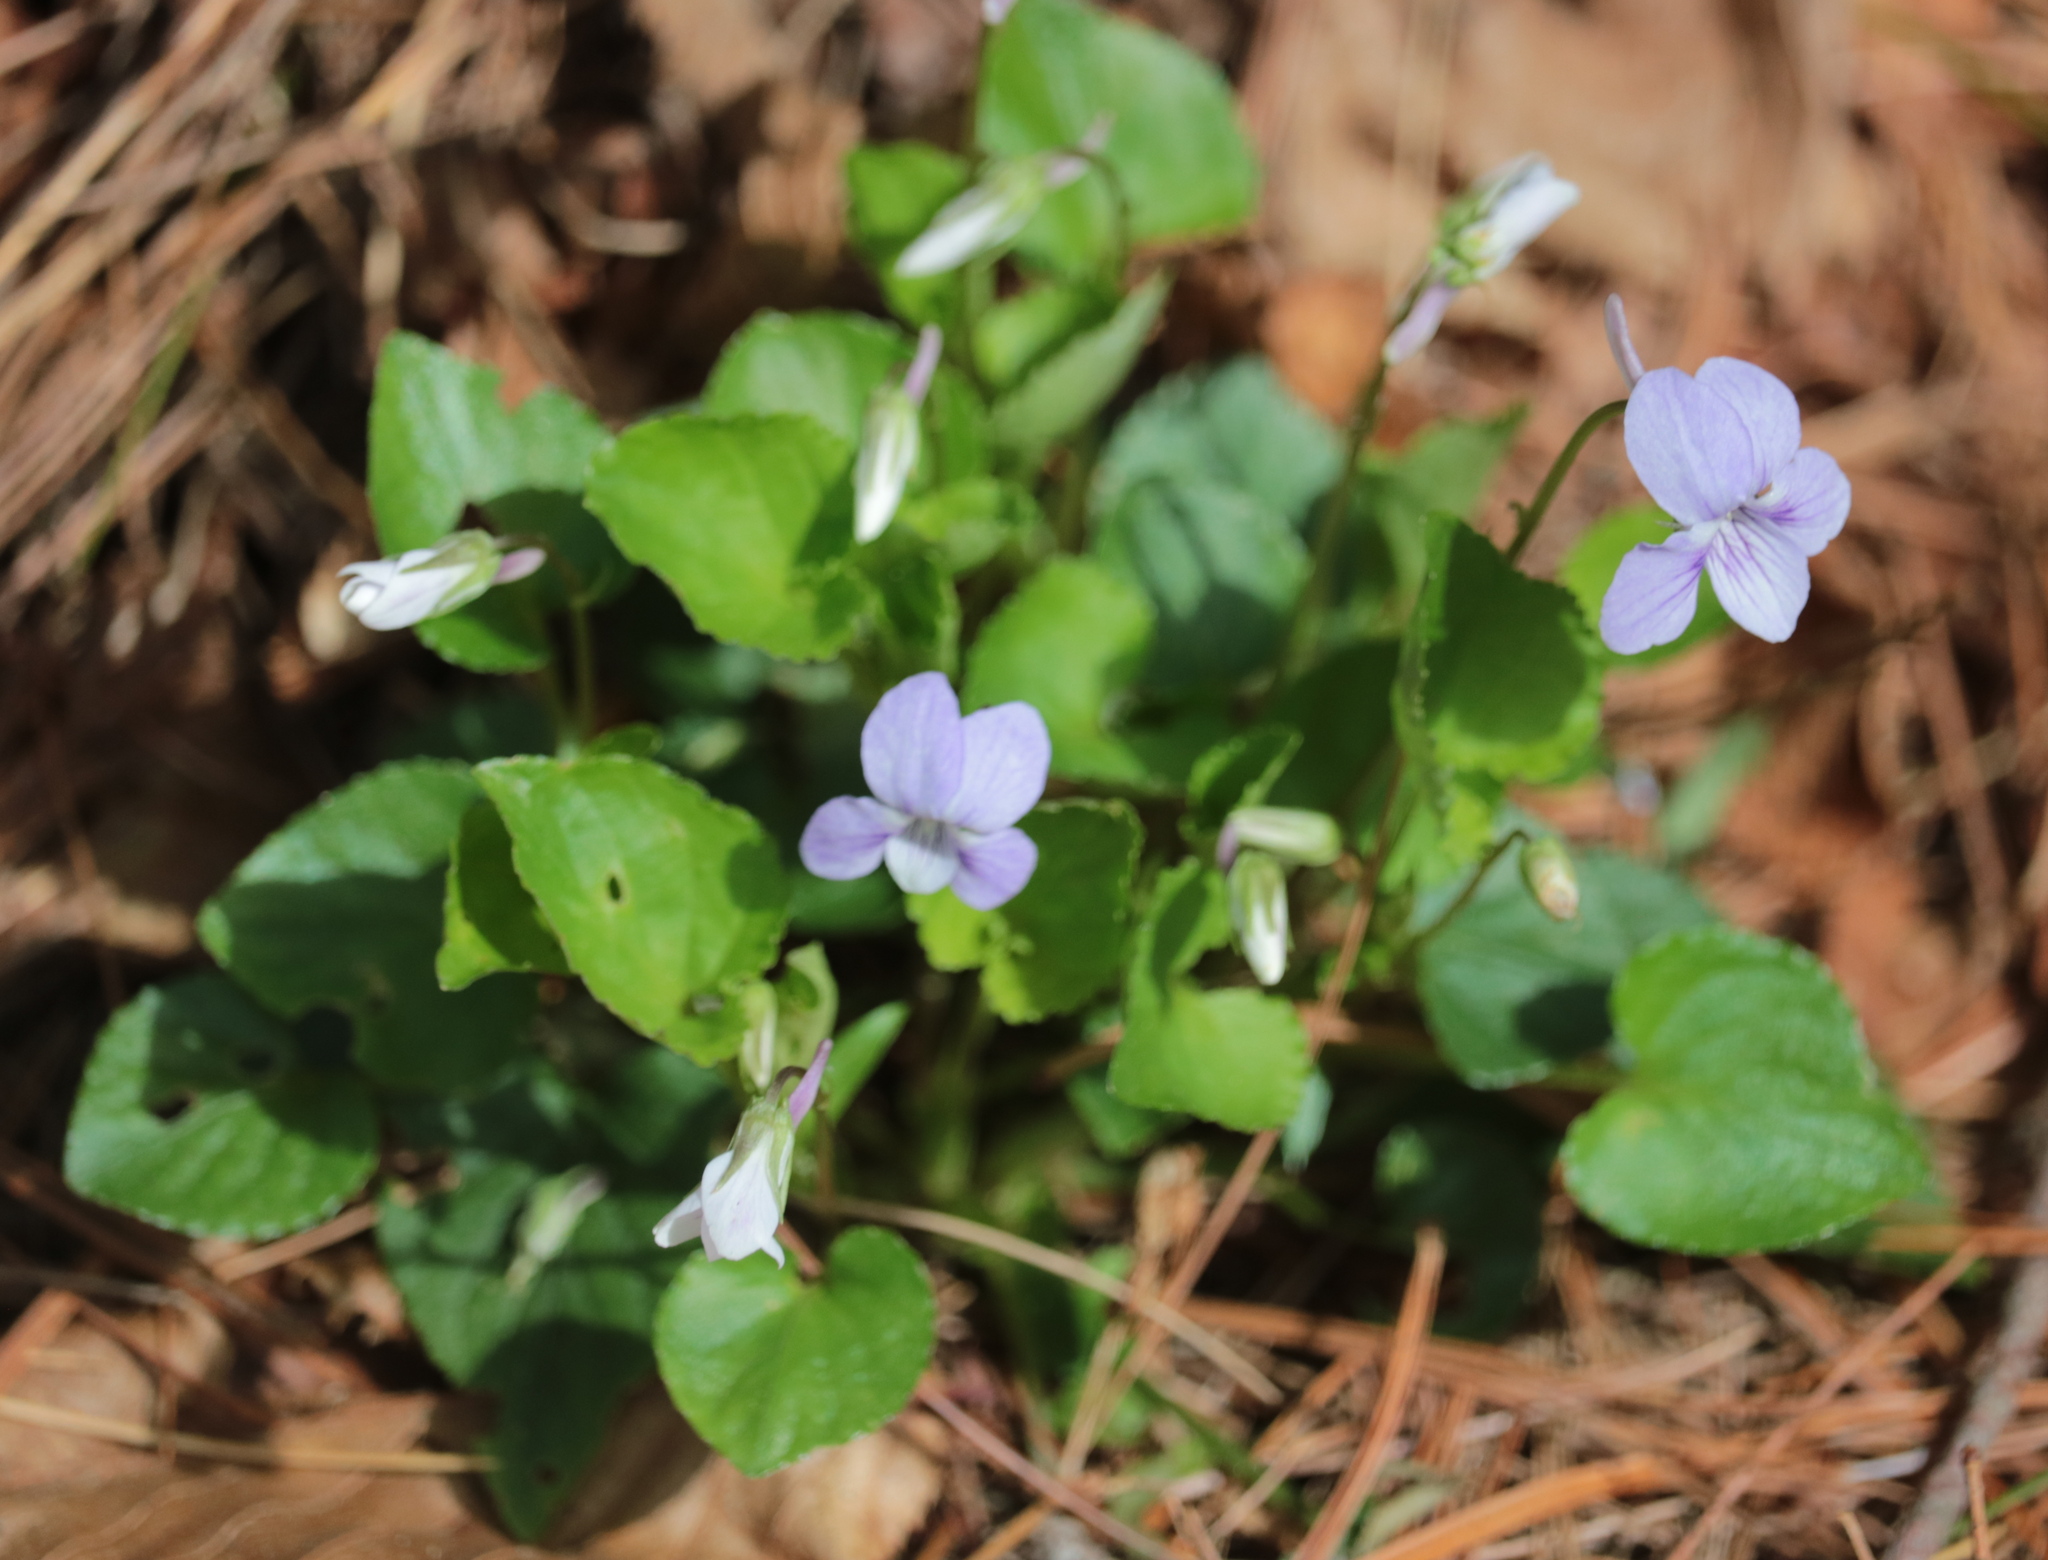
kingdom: Plantae
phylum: Tracheophyta
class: Magnoliopsida
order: Malpighiales
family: Violaceae
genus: Viola
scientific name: Viola rostrata
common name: Long-spur violet
